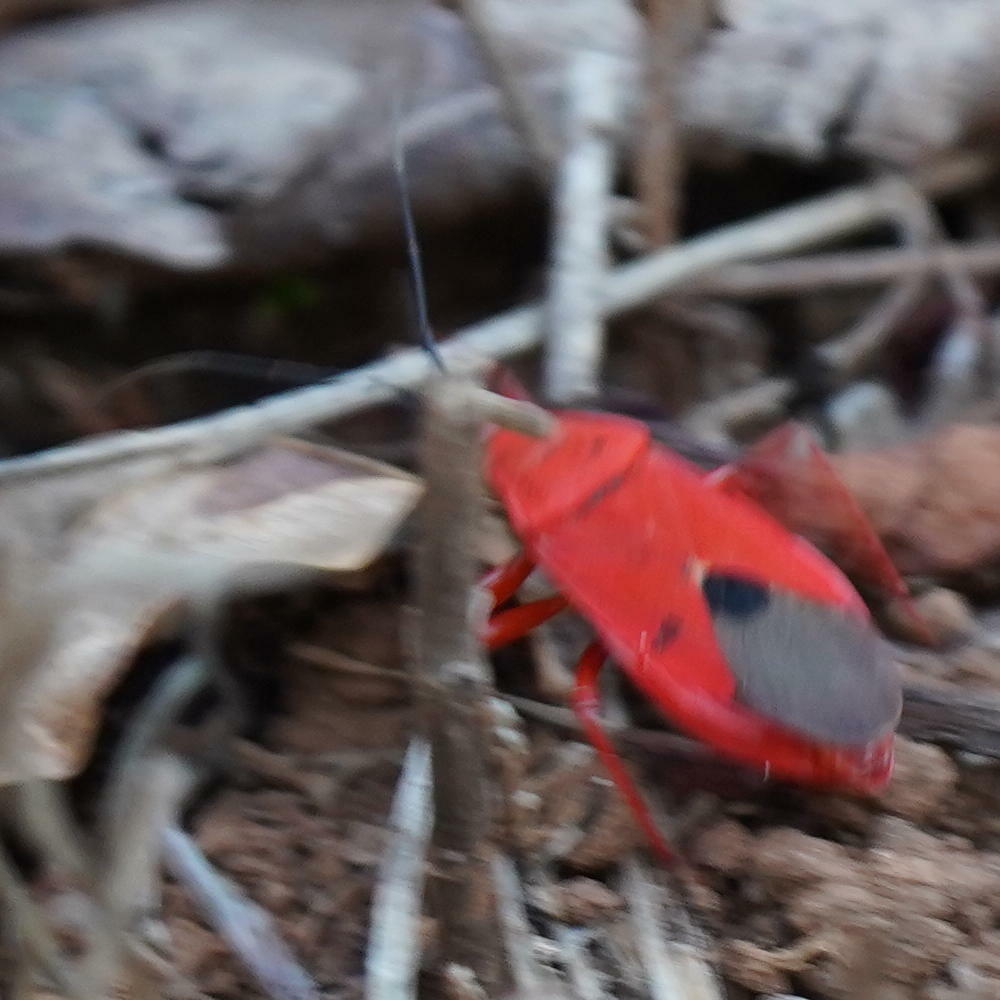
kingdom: Animalia
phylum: Arthropoda
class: Insecta
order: Hemiptera
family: Pyrrhocoridae
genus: Antilochus
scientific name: Antilochus
